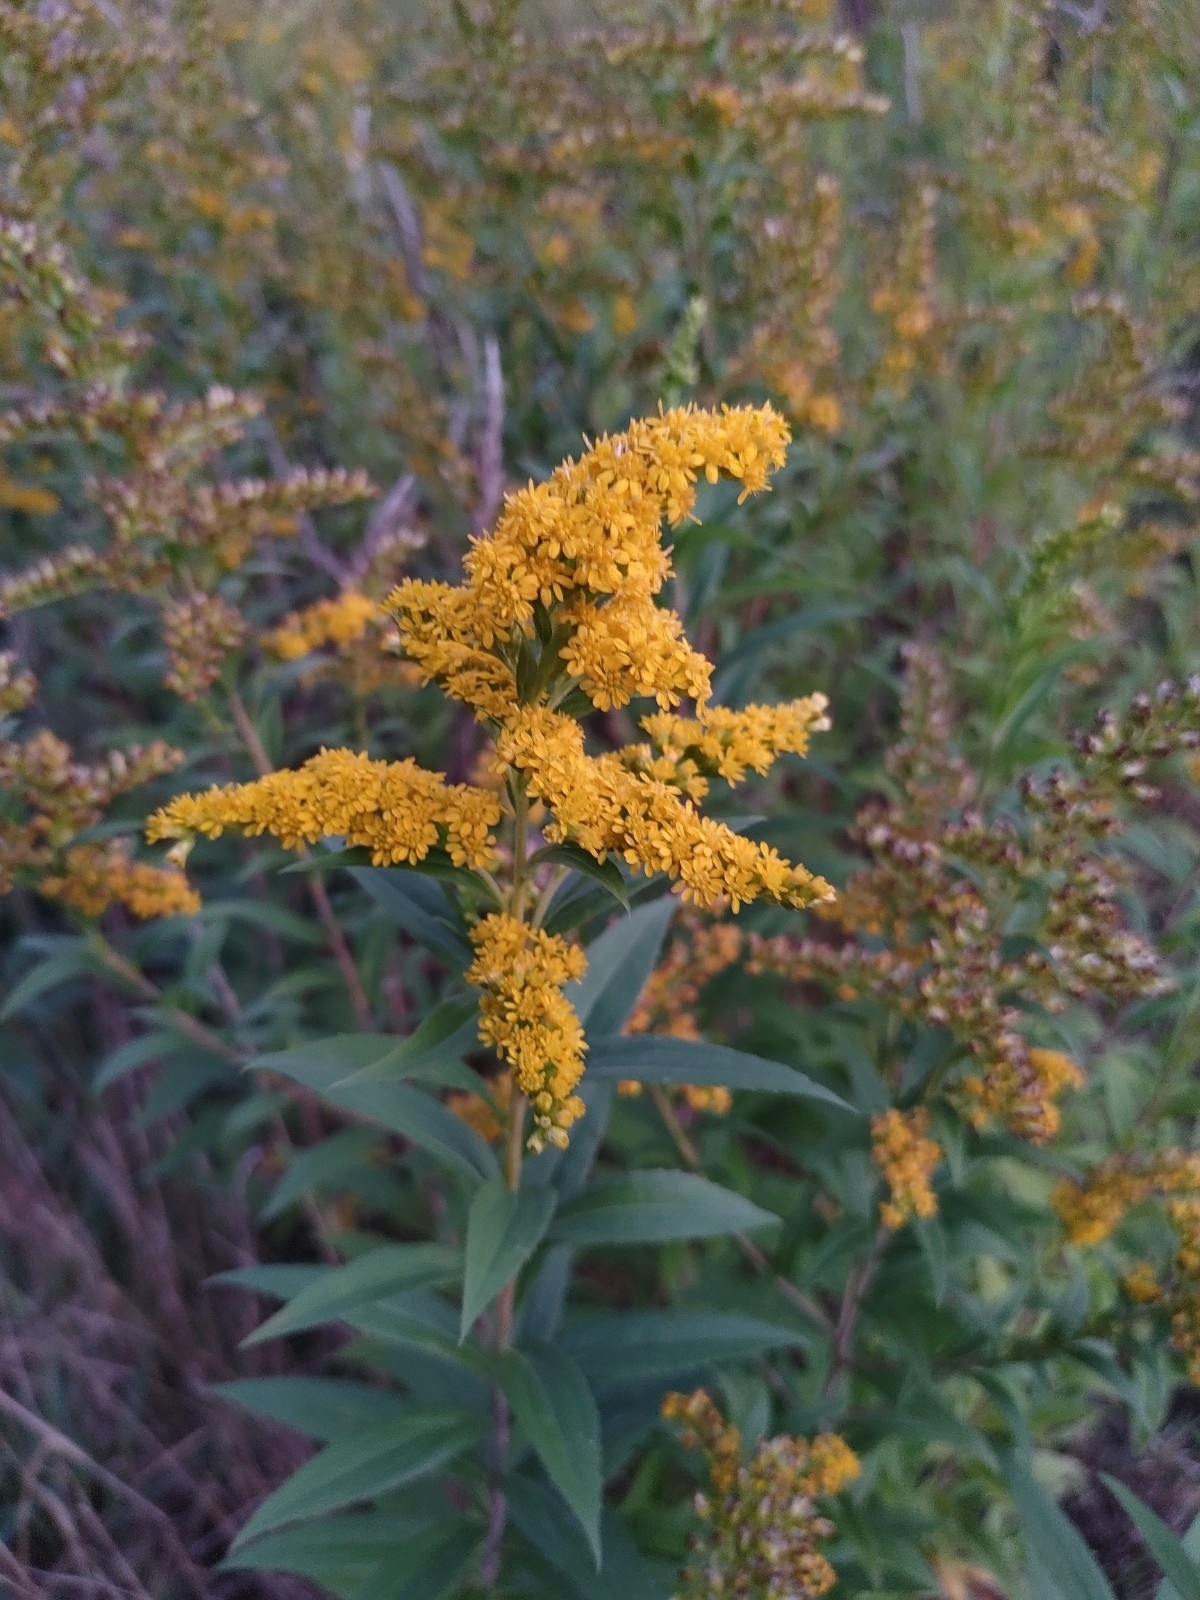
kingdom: Plantae
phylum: Tracheophyta
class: Magnoliopsida
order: Asterales
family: Asteraceae
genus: Solidago
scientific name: Solidago gigantea
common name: Giant goldenrod
